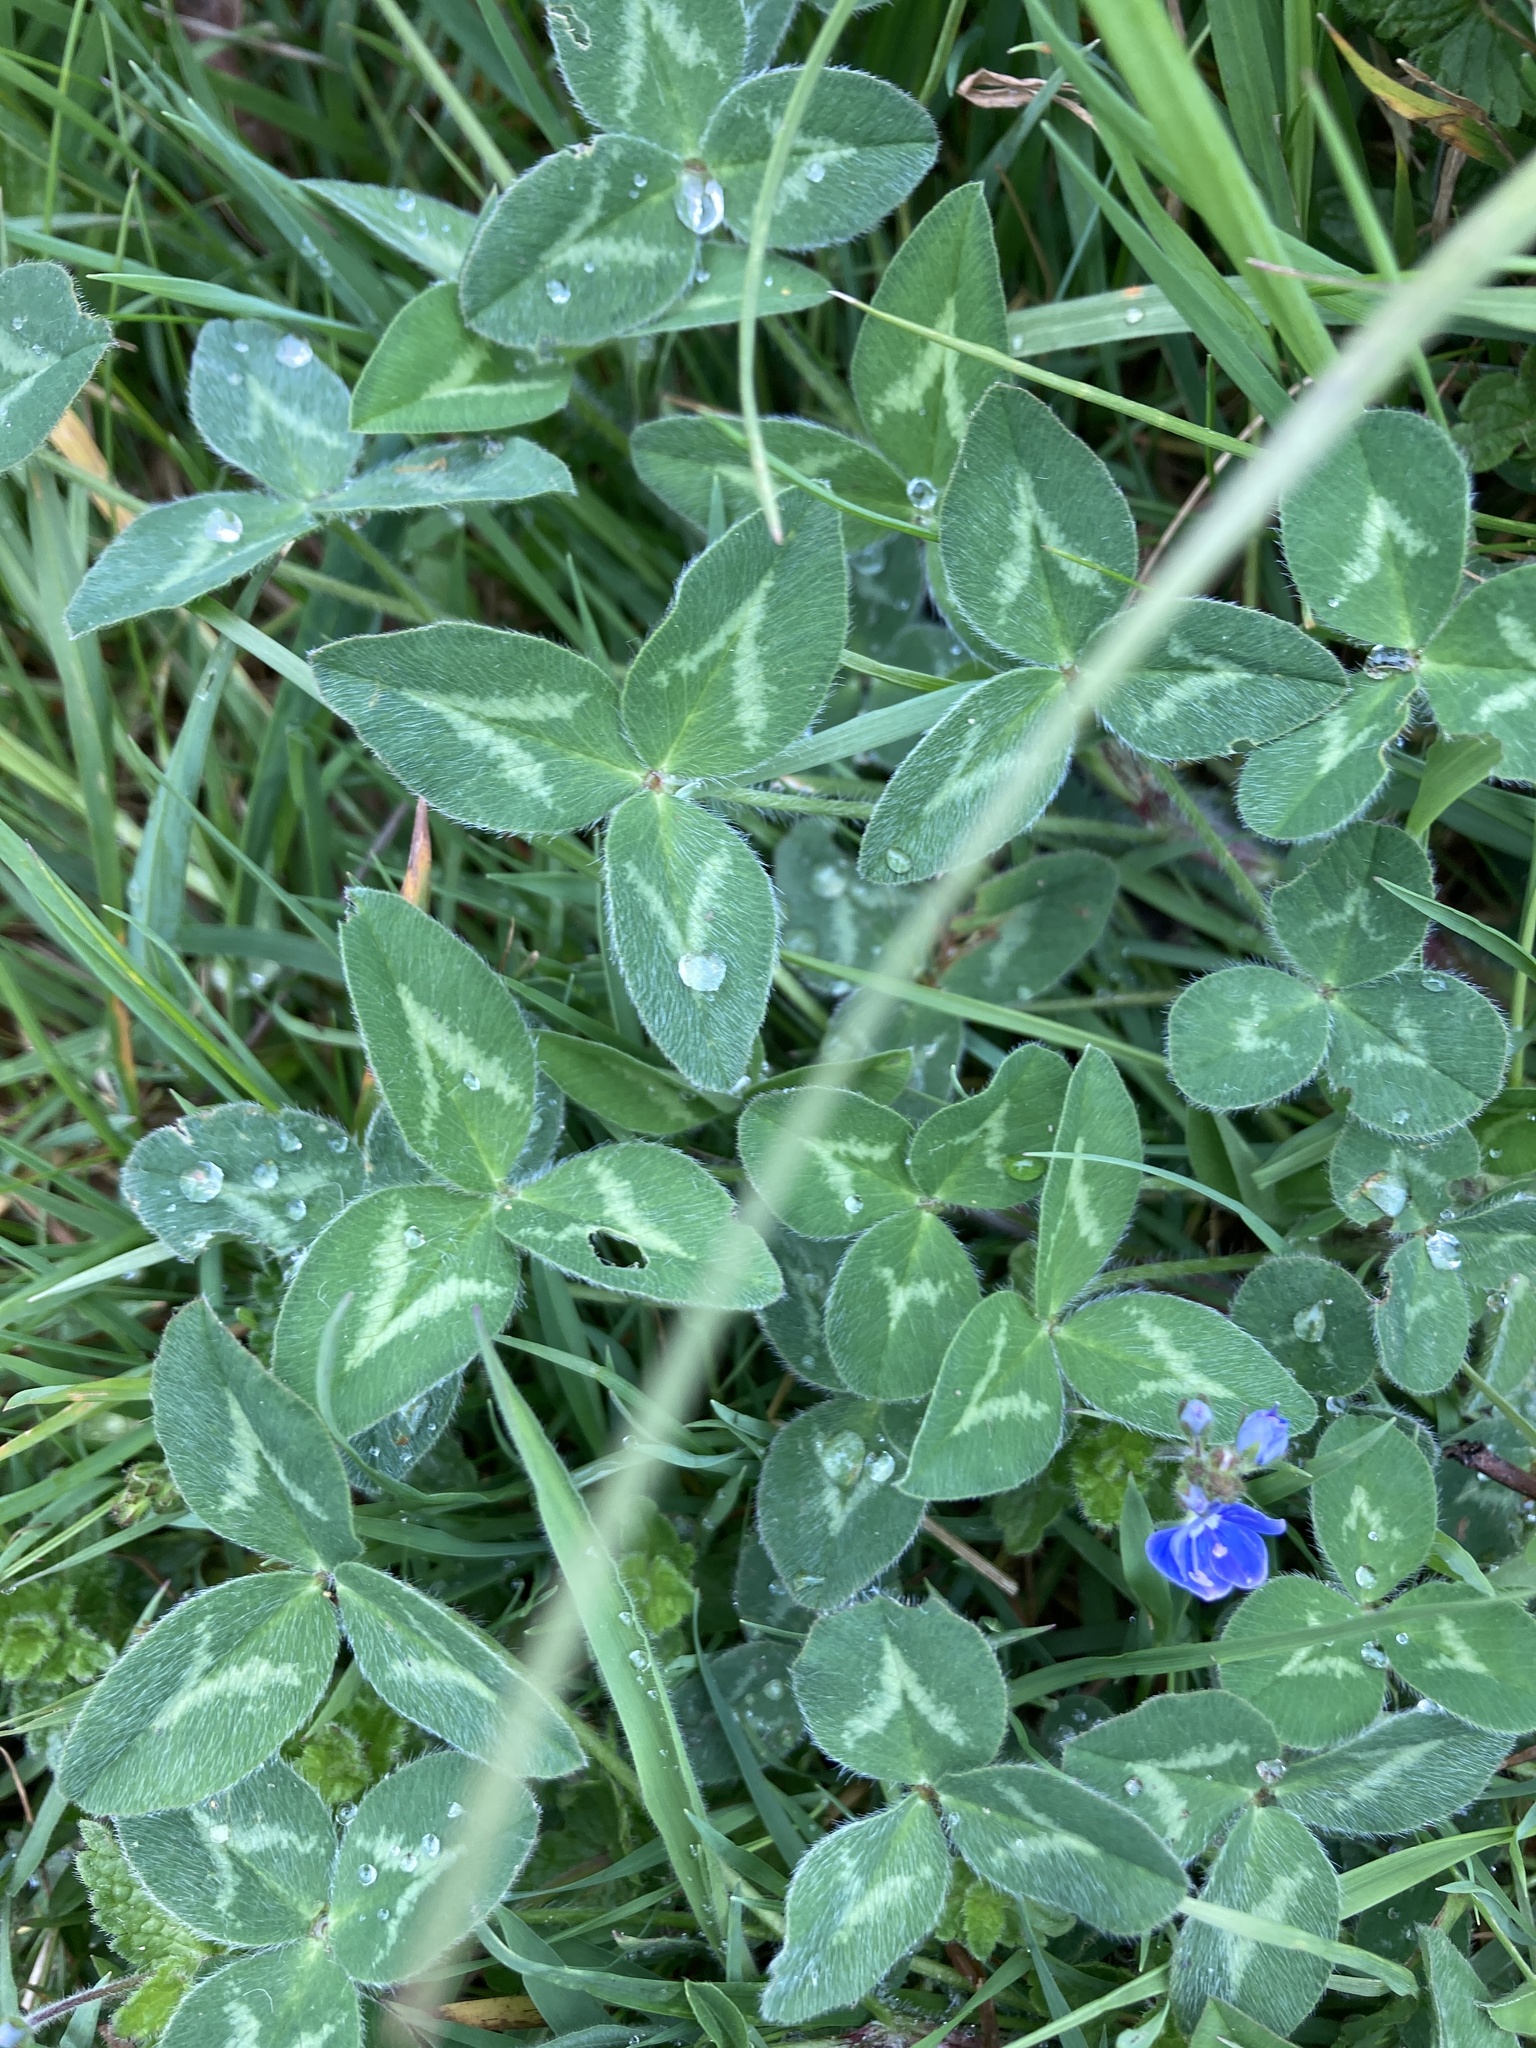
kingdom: Plantae
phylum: Tracheophyta
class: Magnoliopsida
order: Fabales
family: Fabaceae
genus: Trifolium
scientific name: Trifolium pratense
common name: Red clover
